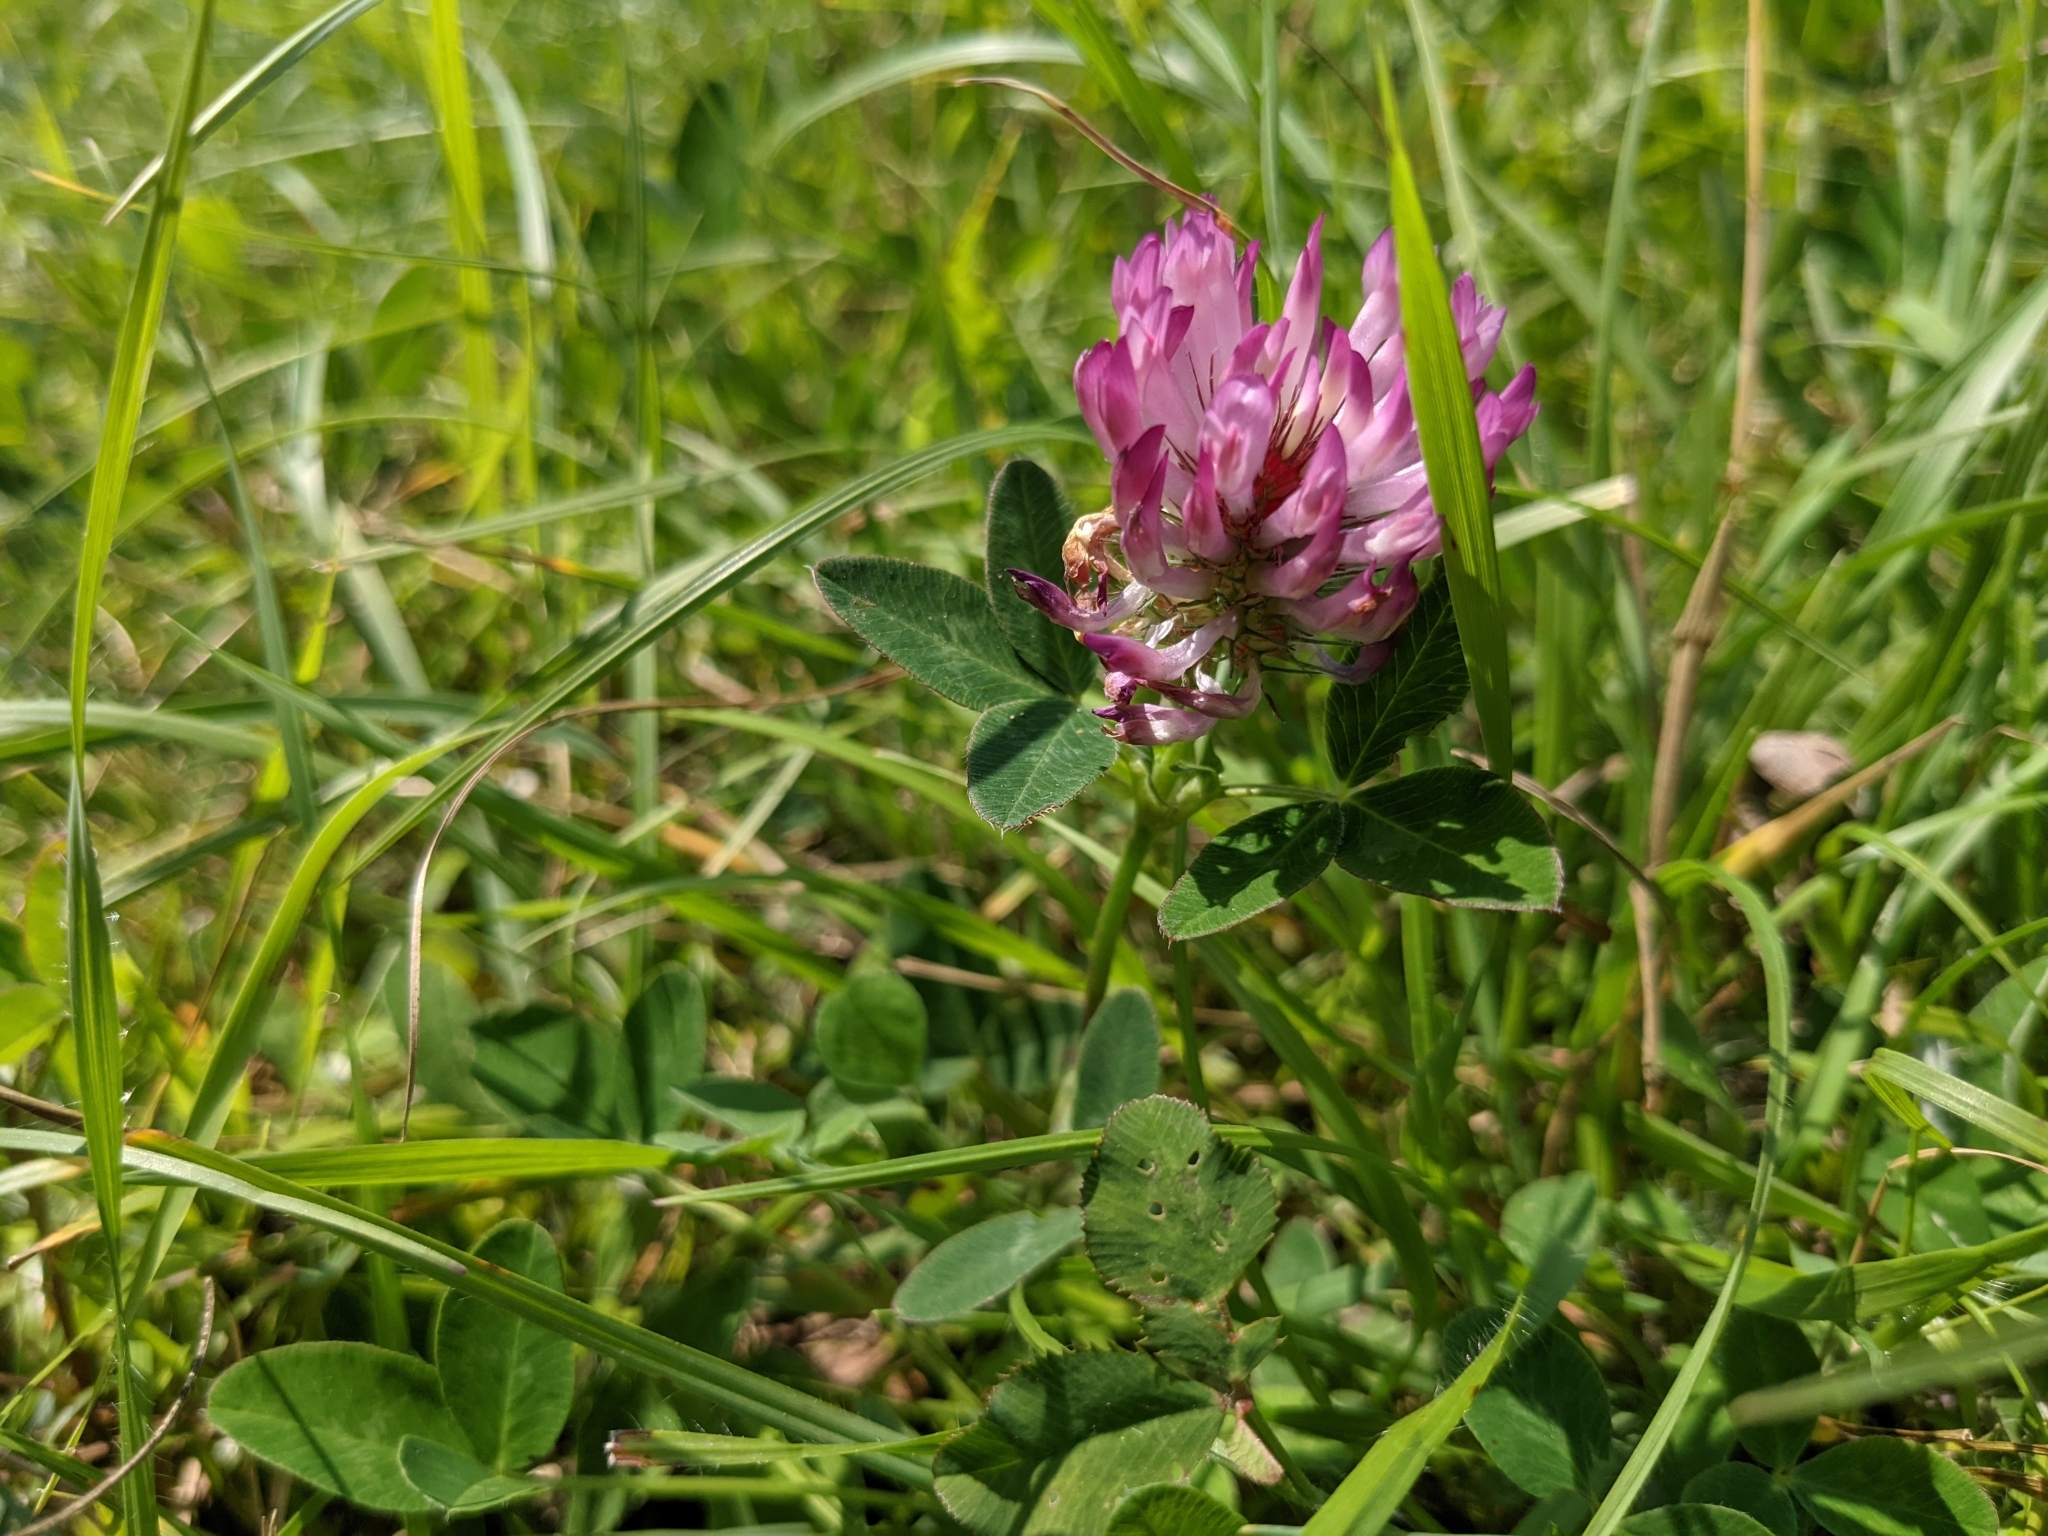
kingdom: Plantae
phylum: Tracheophyta
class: Magnoliopsida
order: Fabales
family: Fabaceae
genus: Trifolium
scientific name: Trifolium pratense
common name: Red clover
